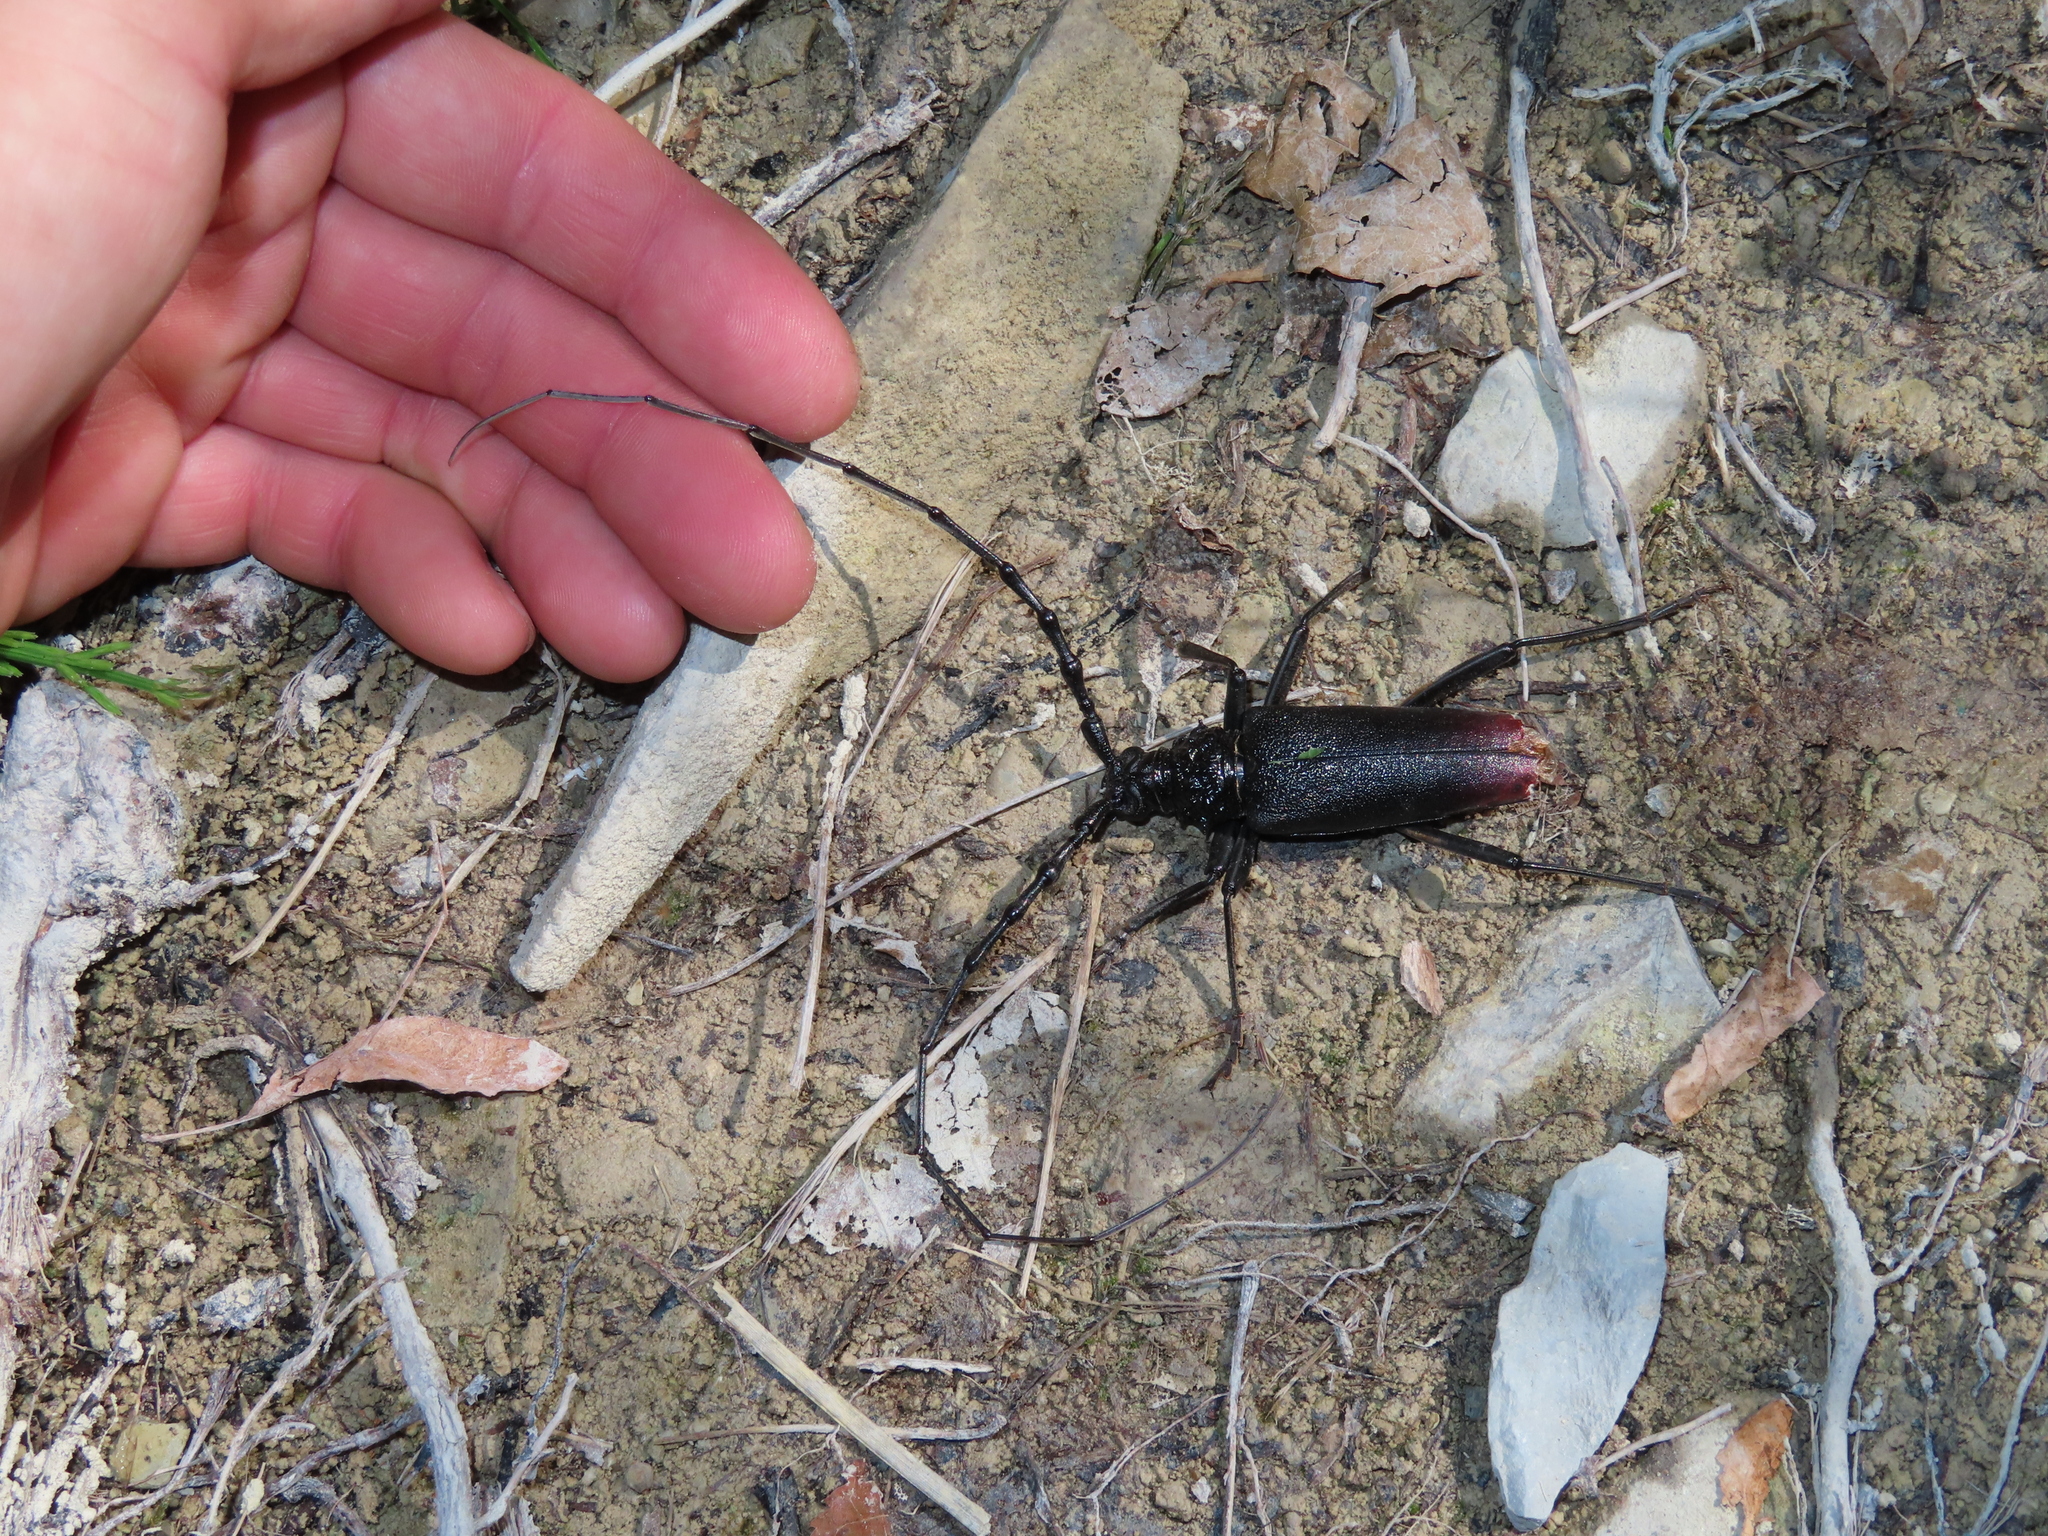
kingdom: Animalia
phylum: Arthropoda
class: Insecta
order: Coleoptera
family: Cerambycidae
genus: Cerambyx
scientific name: Cerambyx cerdo
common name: Cerambyx longicorn
